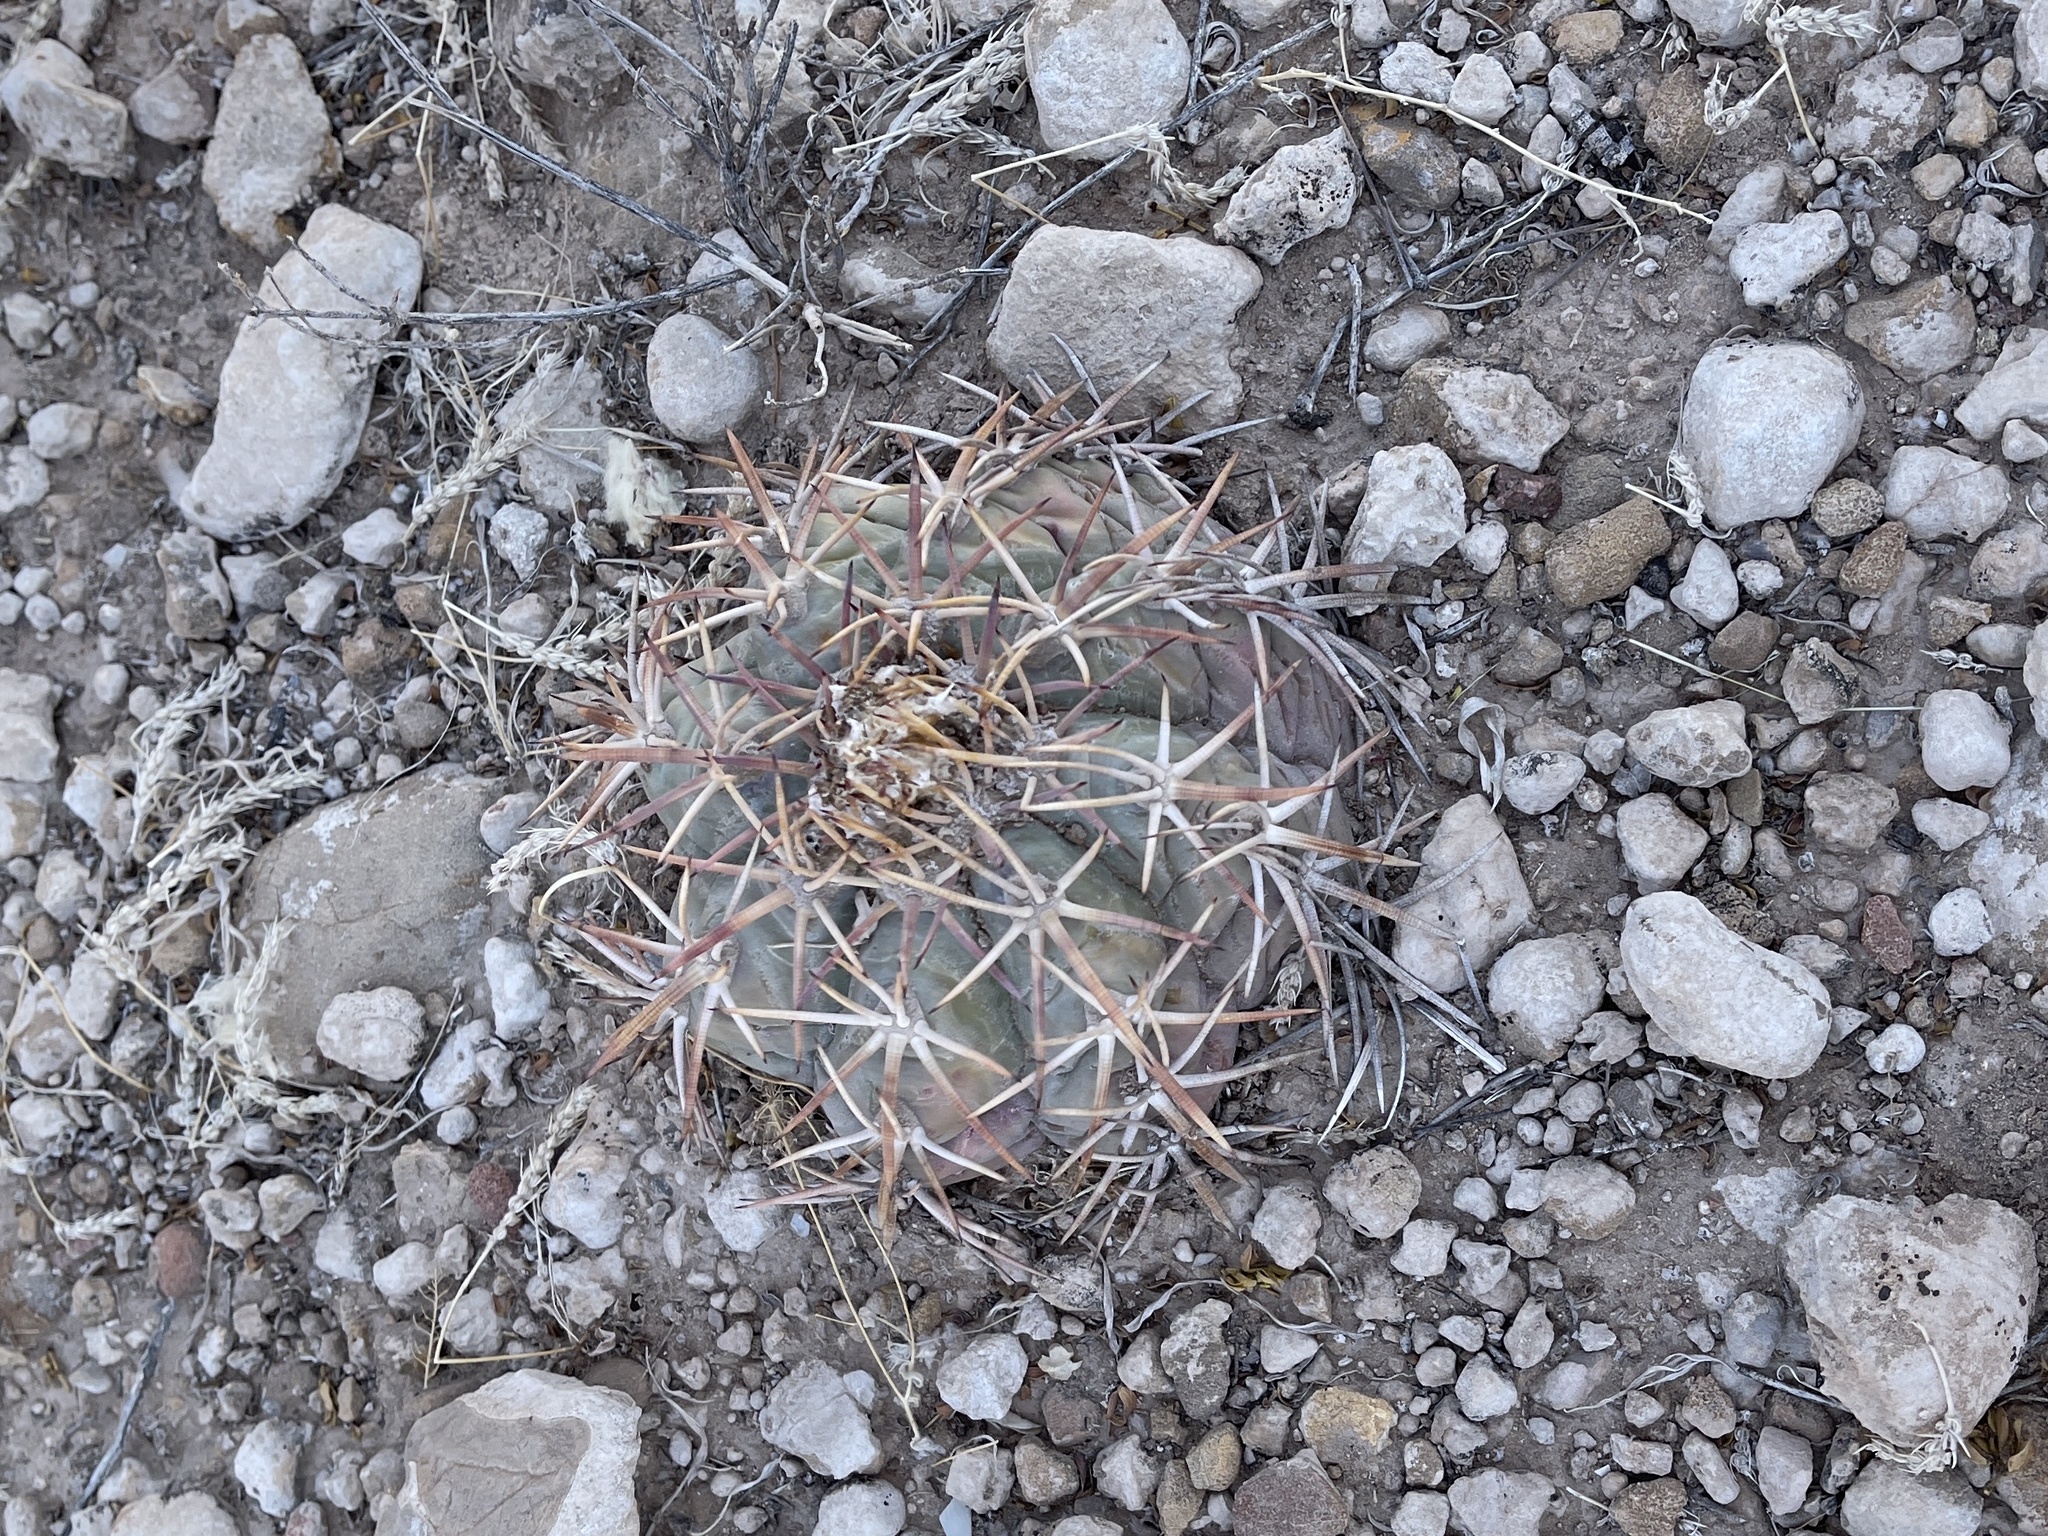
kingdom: Plantae
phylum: Tracheophyta
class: Magnoliopsida
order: Caryophyllales
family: Cactaceae
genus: Echinocactus
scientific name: Echinocactus horizonthalonius
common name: Devilshead
